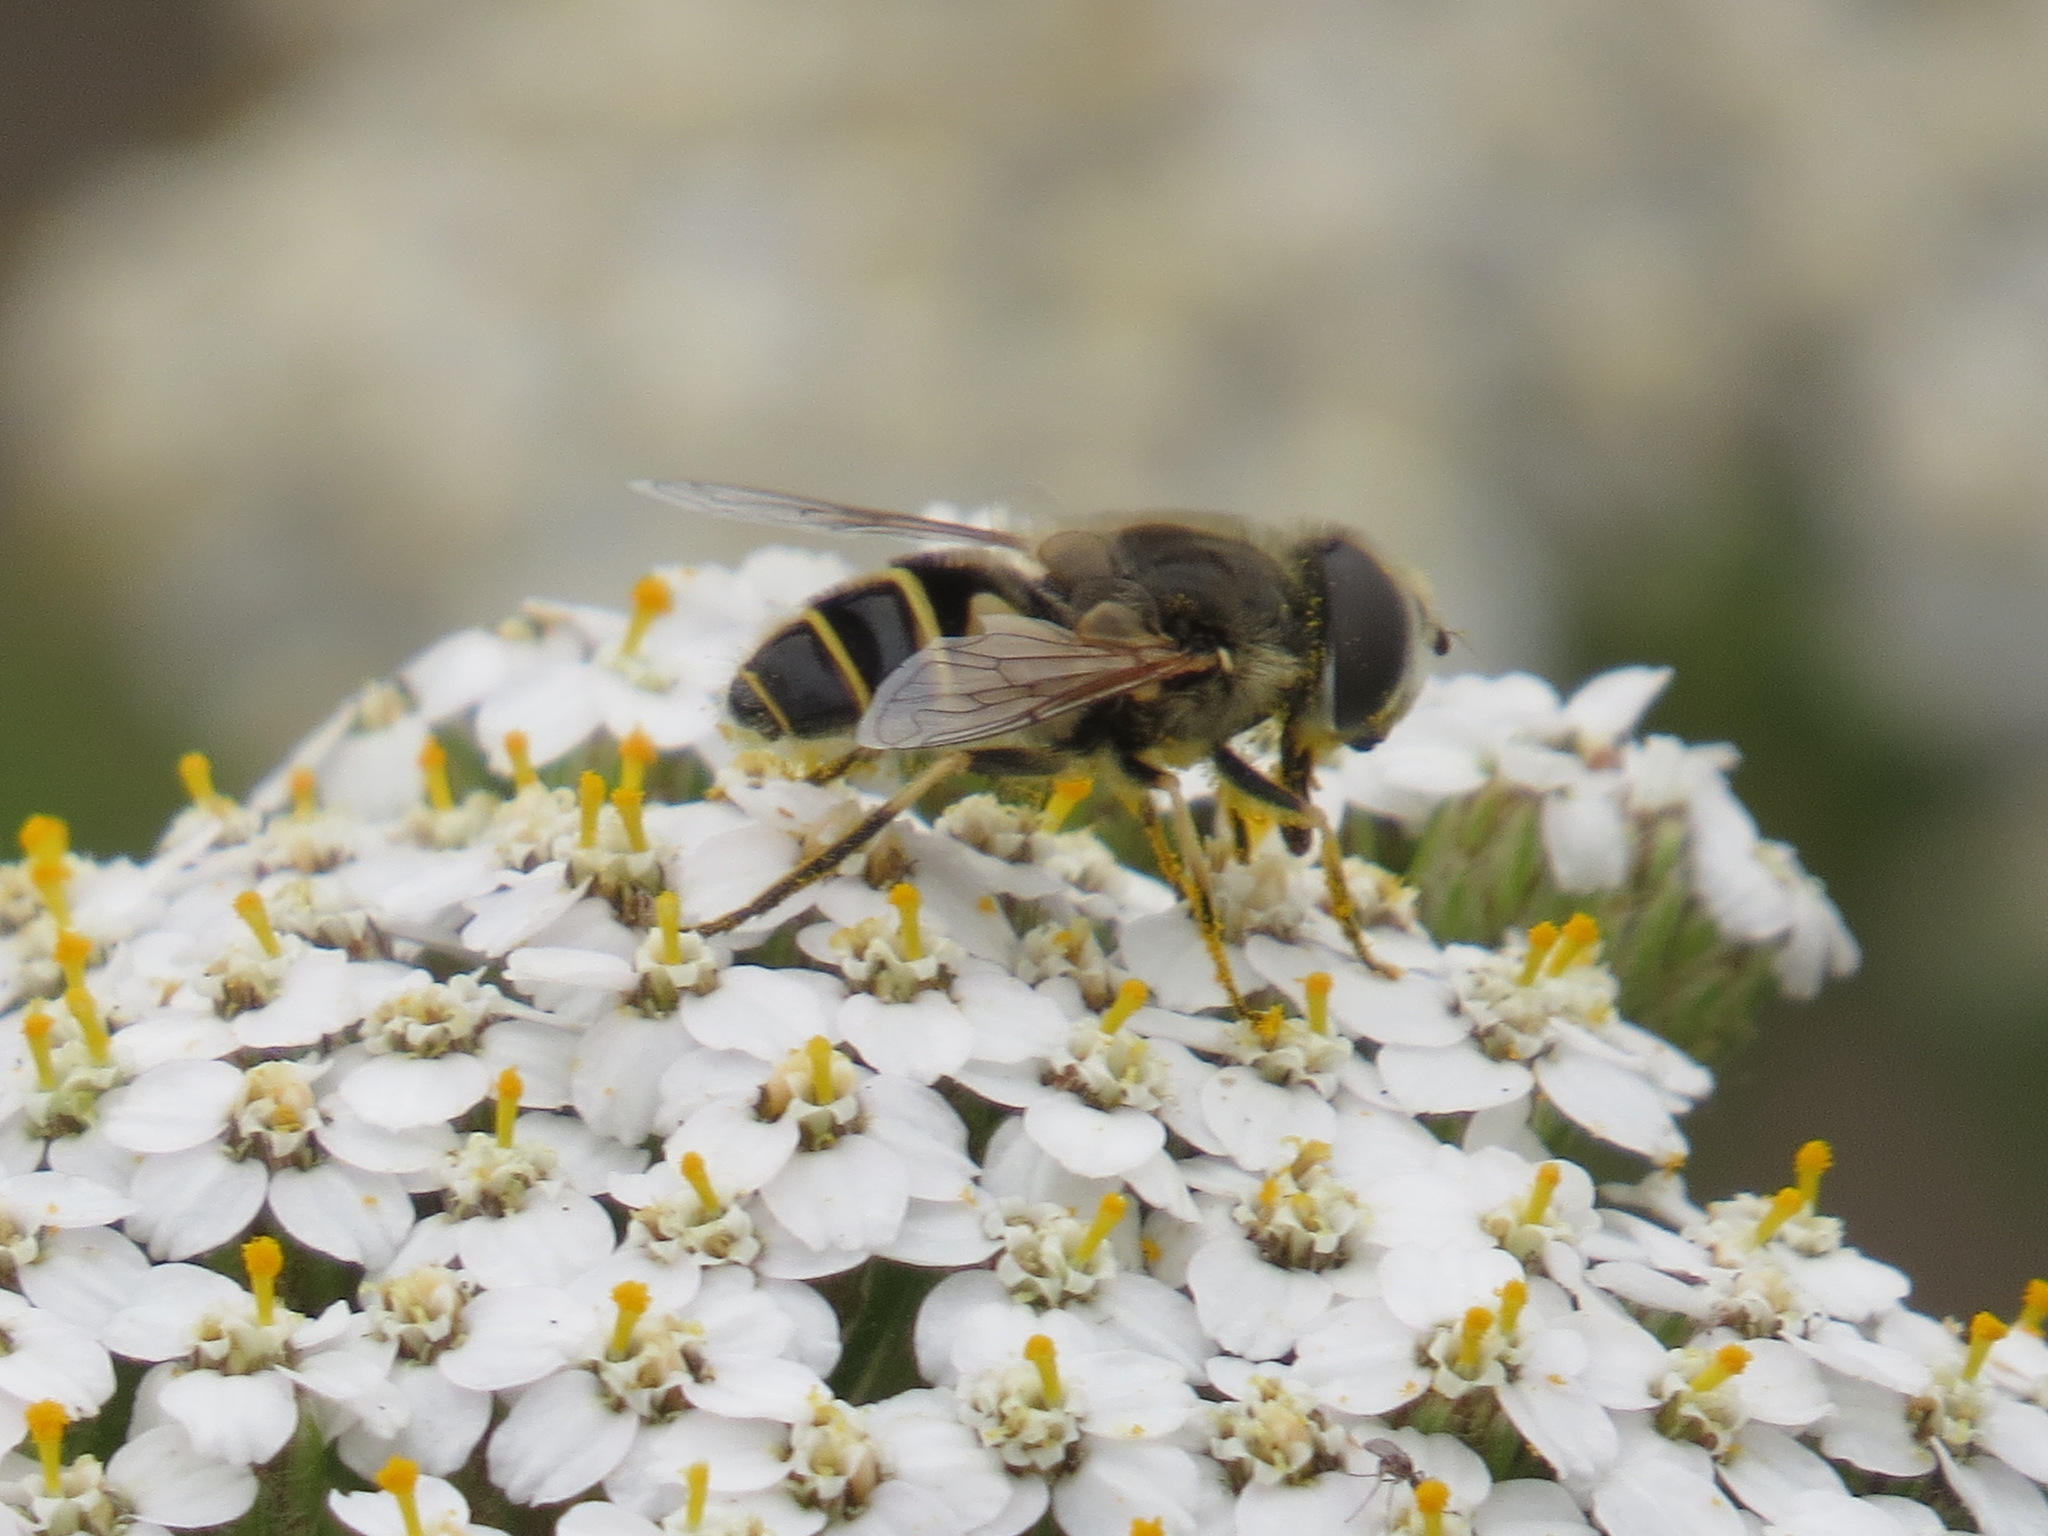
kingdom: Animalia
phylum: Arthropoda
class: Insecta
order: Diptera
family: Syrphidae
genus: Eristalis
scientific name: Eristalis hirta
